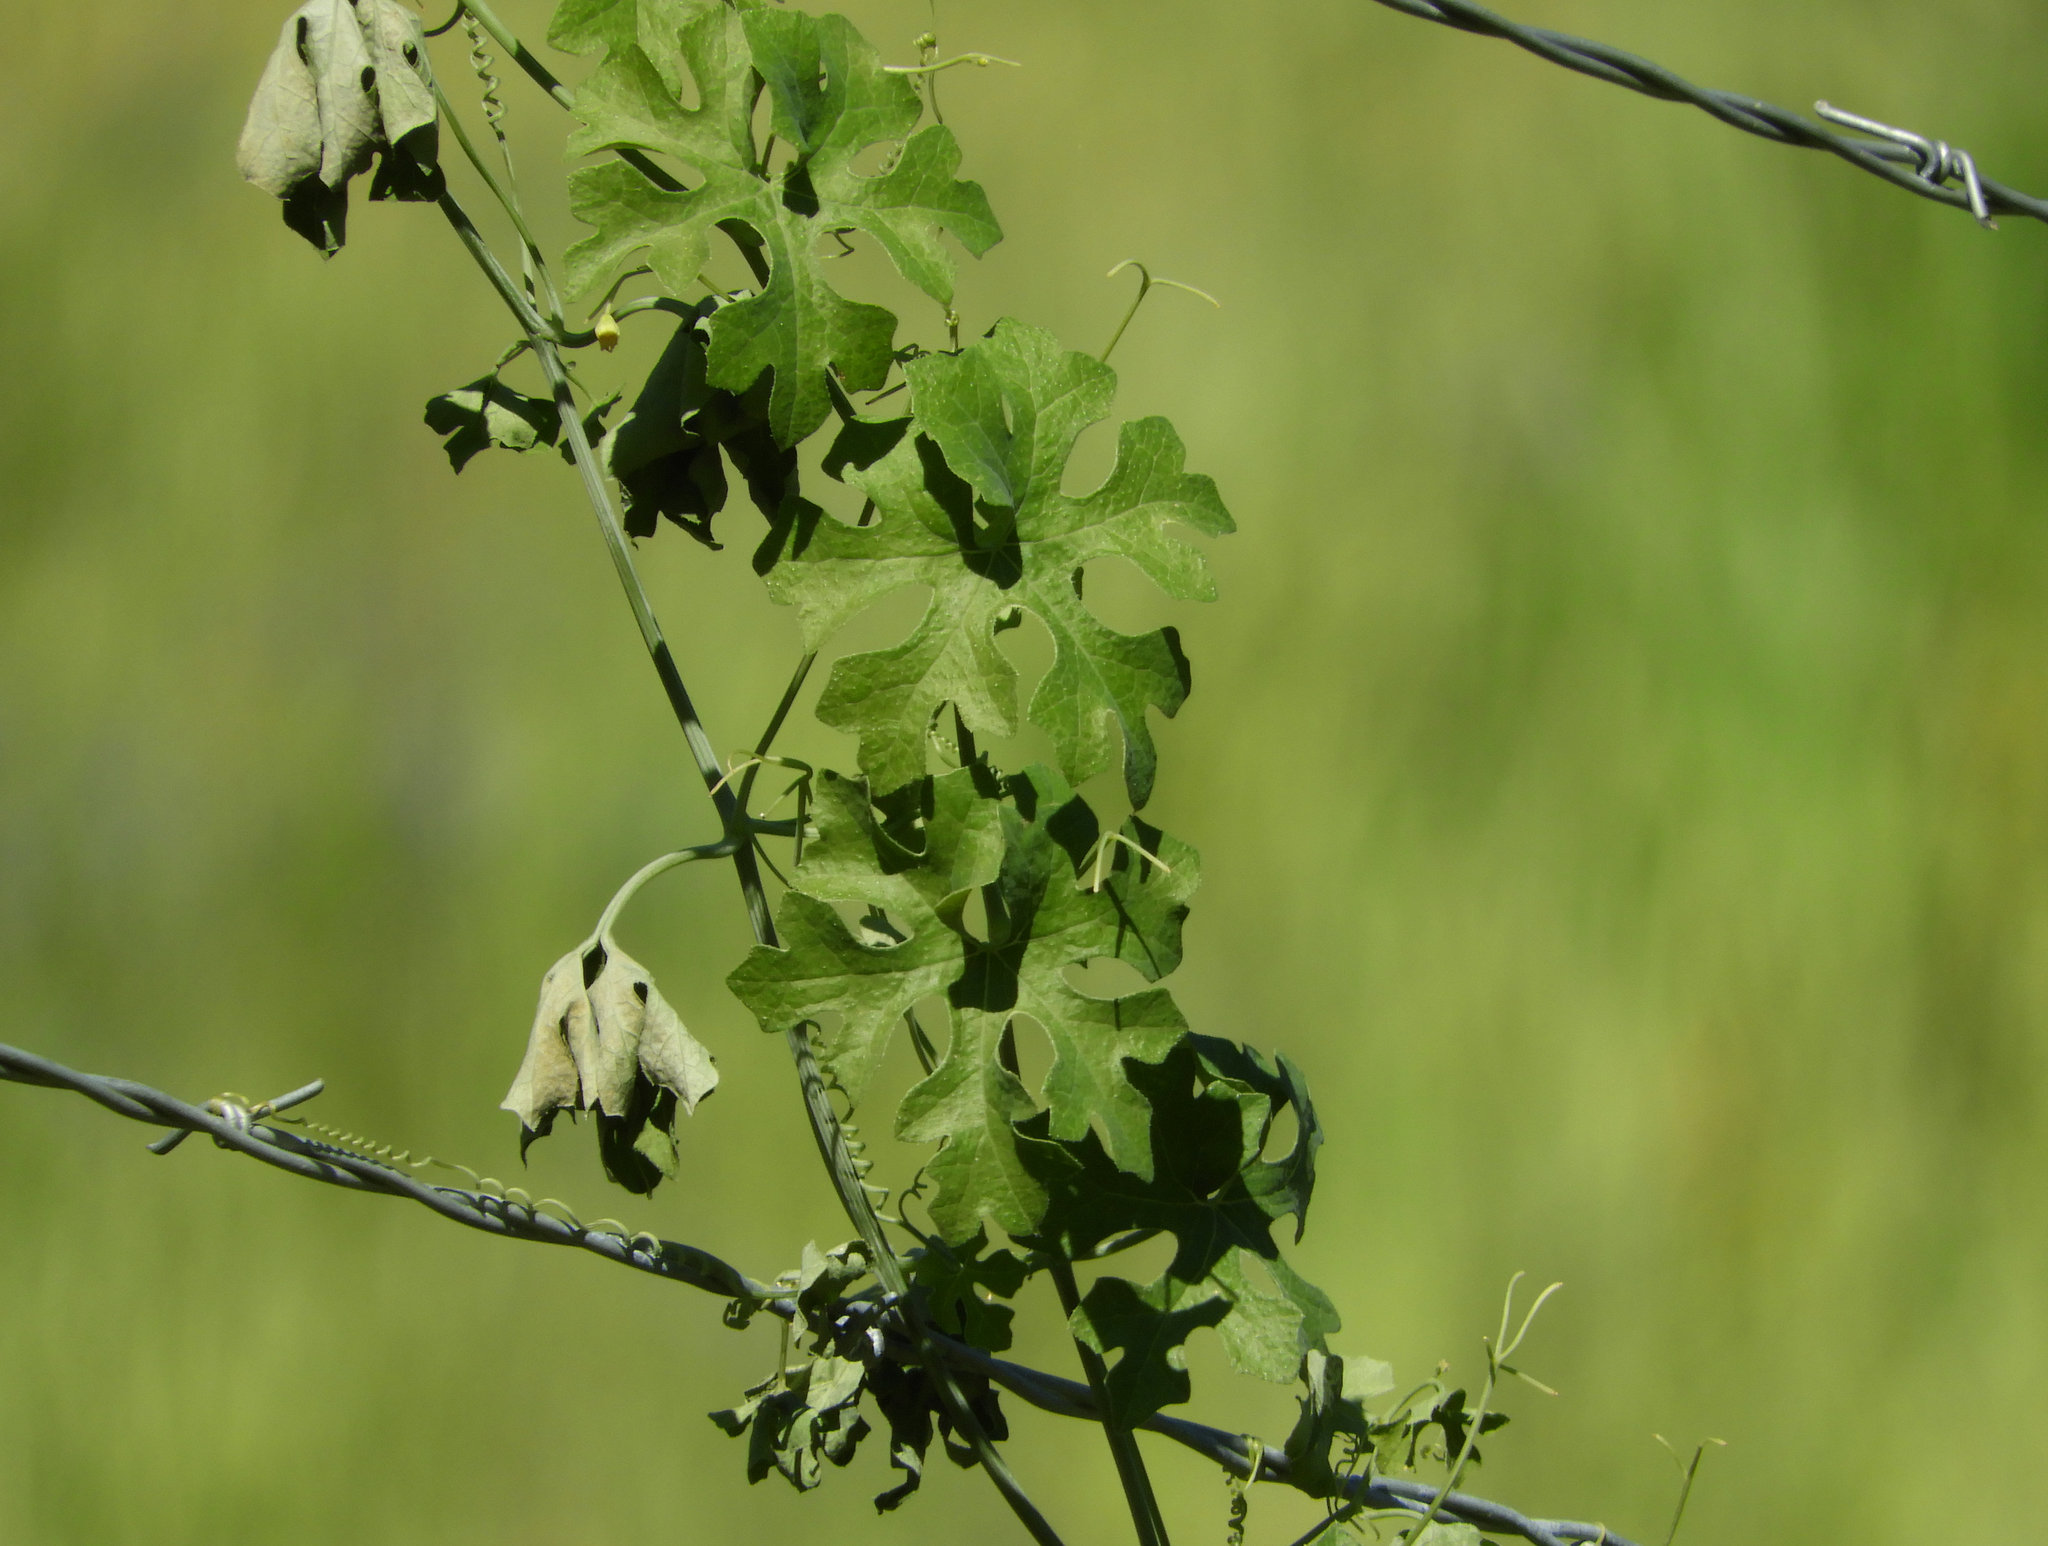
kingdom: Plantae
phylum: Tracheophyta
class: Magnoliopsida
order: Cucurbitales
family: Cucurbitaceae
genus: Marah
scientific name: Marah watsonii
